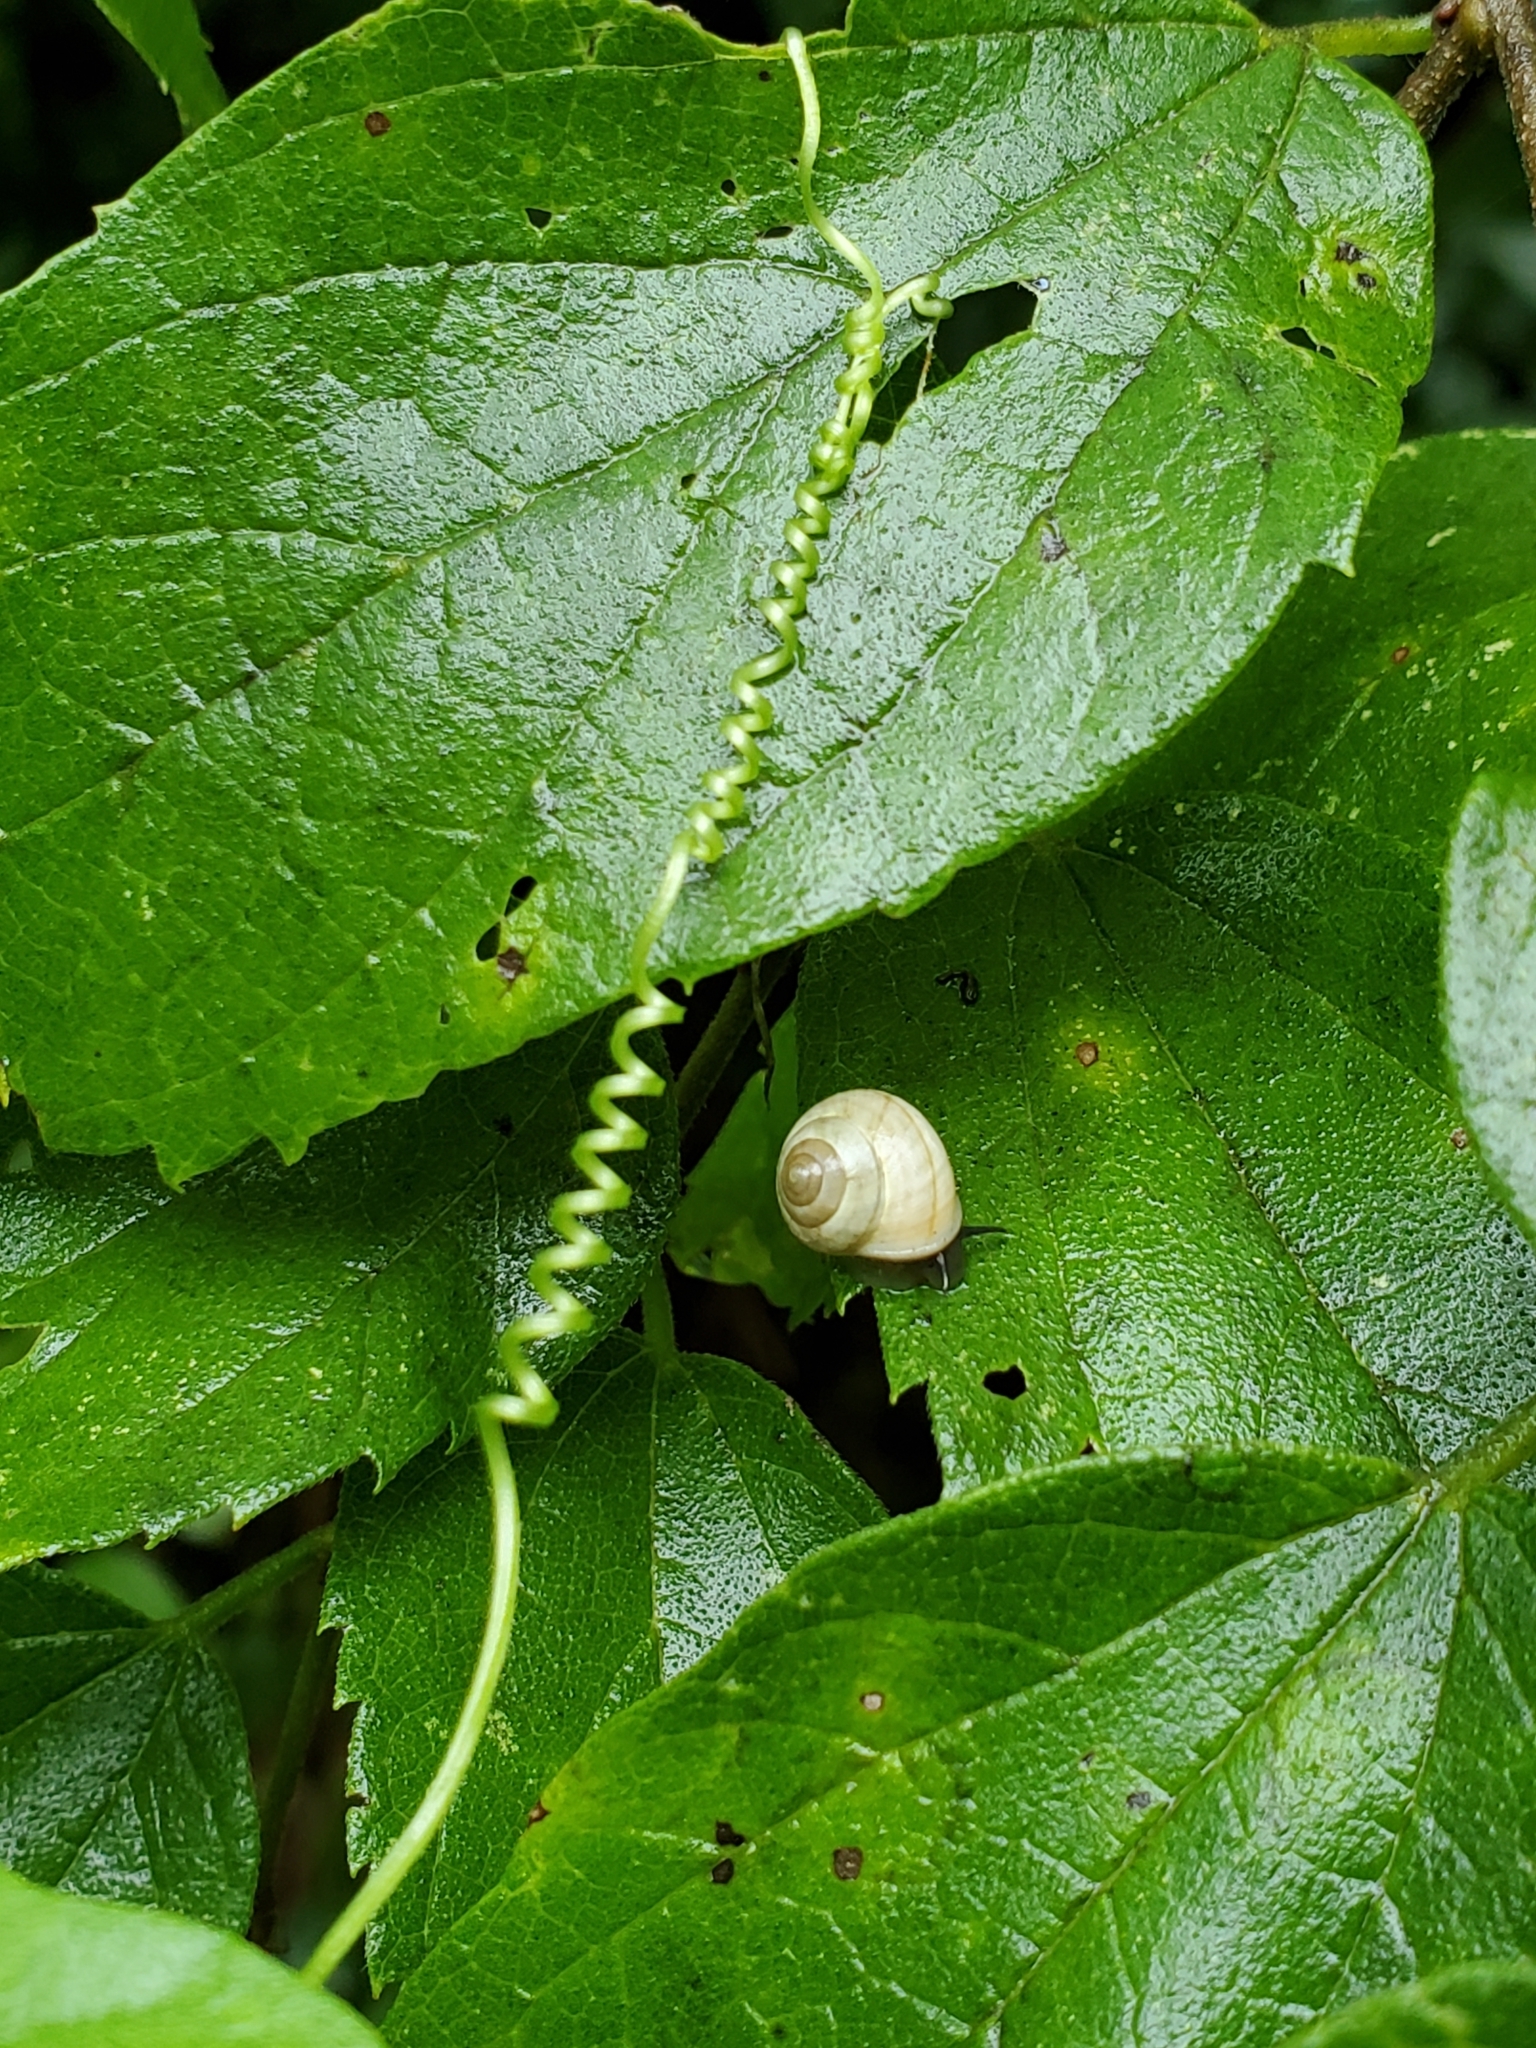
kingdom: Plantae
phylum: Tracheophyta
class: Magnoliopsida
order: Cucurbitales
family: Cucurbitaceae
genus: Melothria
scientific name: Melothria pendula
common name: Creeping-cucumber
